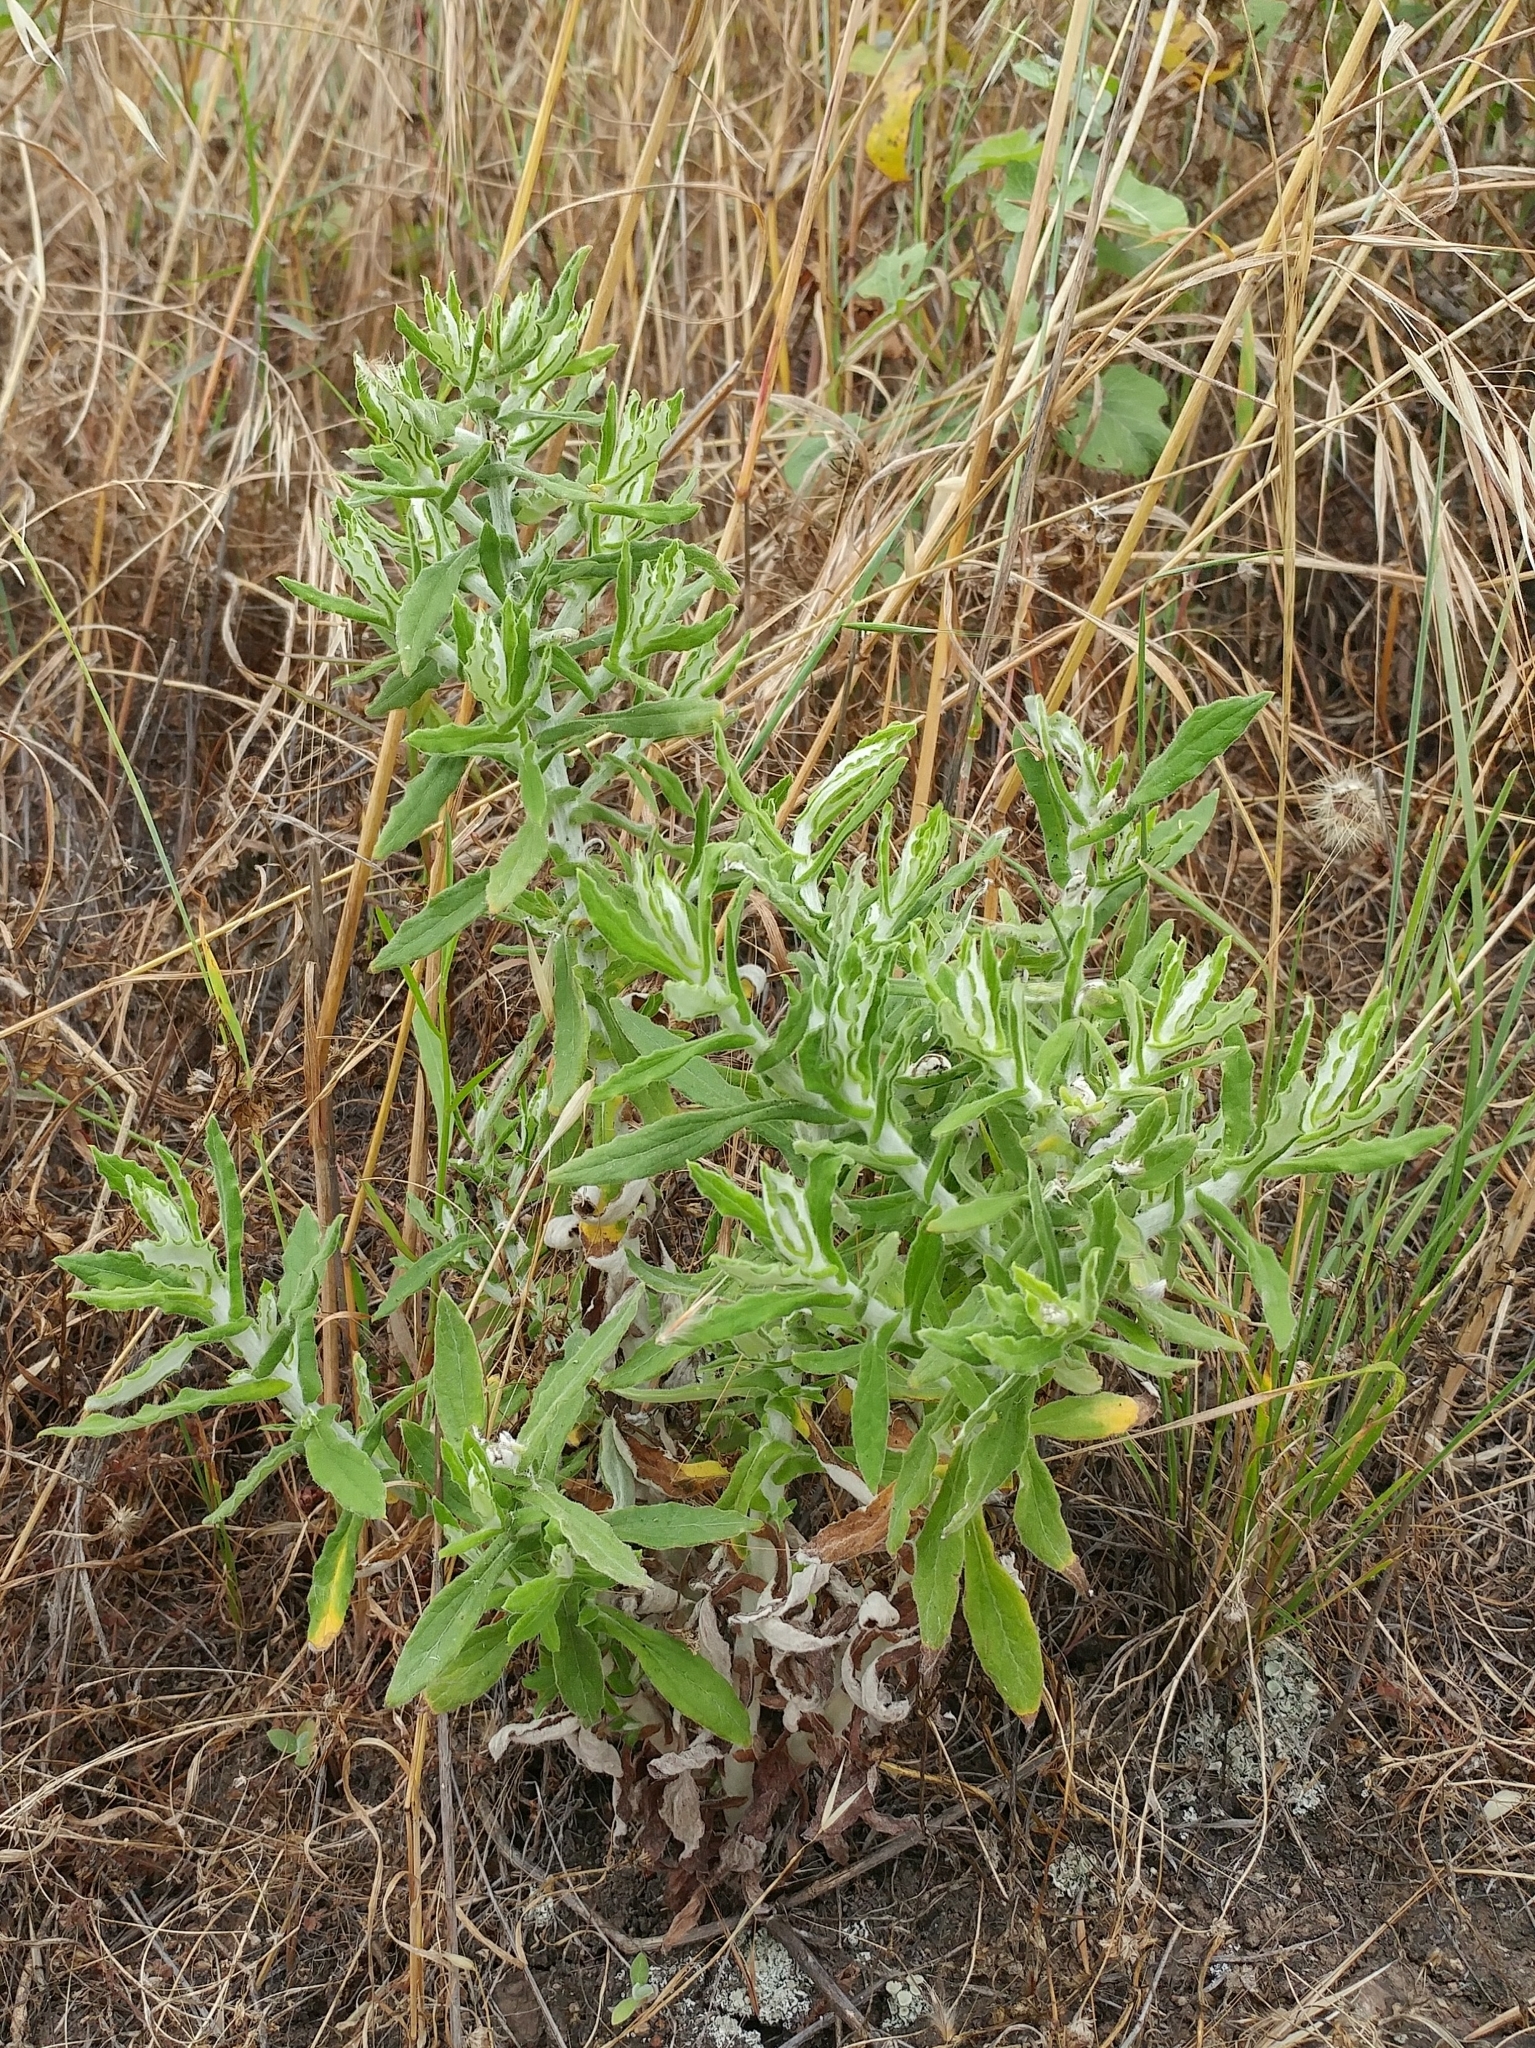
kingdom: Plantae
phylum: Tracheophyta
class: Magnoliopsida
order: Asterales
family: Asteraceae
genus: Pseudognaphalium
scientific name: Pseudognaphalium biolettii
